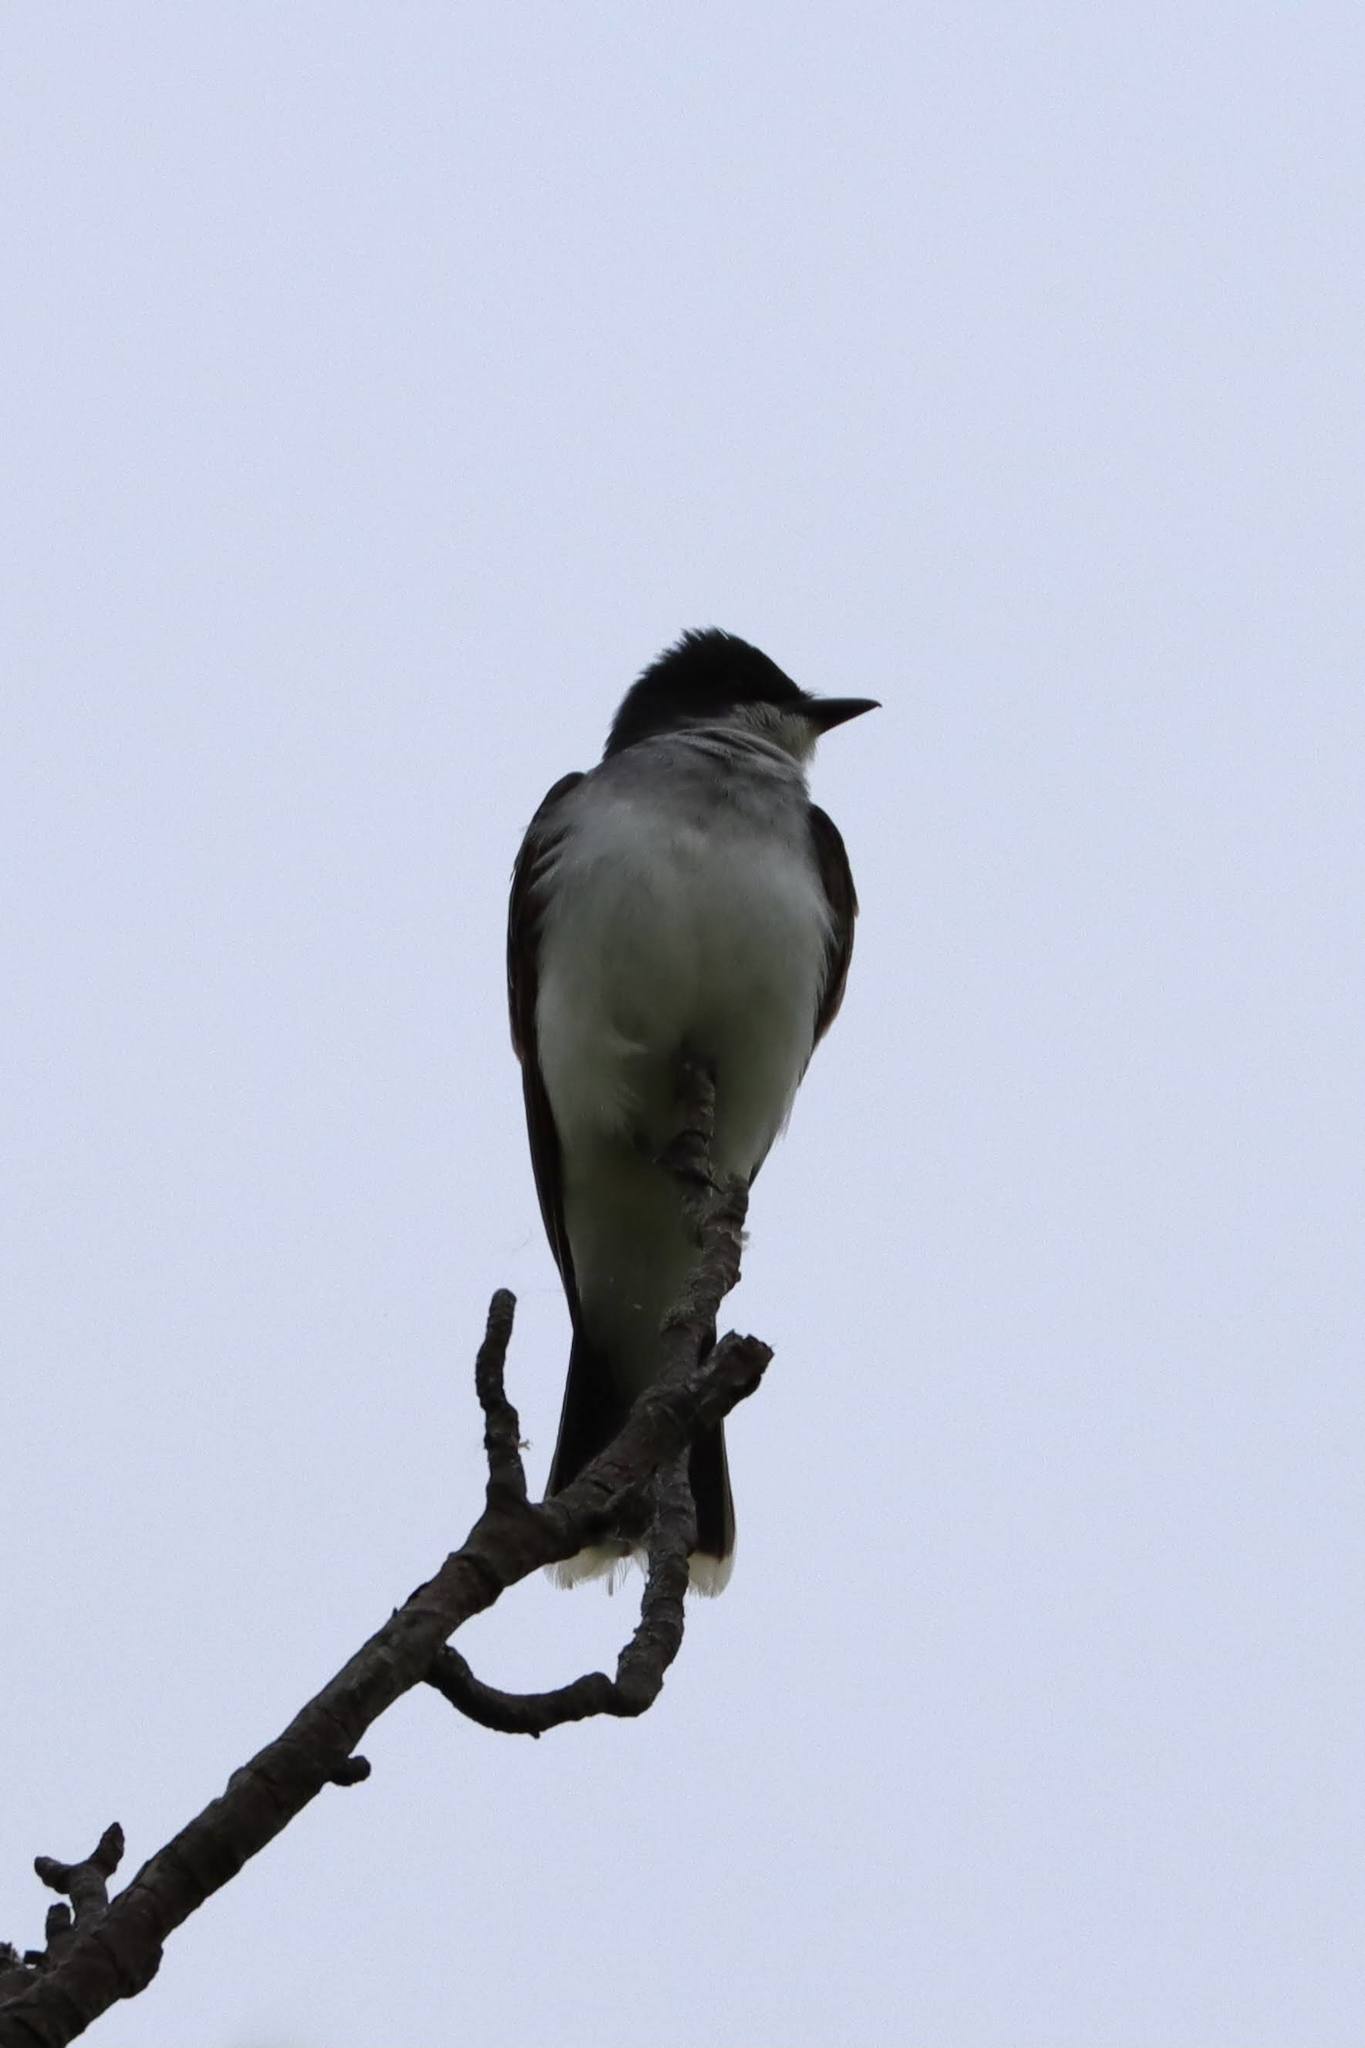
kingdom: Animalia
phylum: Chordata
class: Aves
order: Passeriformes
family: Tyrannidae
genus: Tyrannus
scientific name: Tyrannus tyrannus
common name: Eastern kingbird
